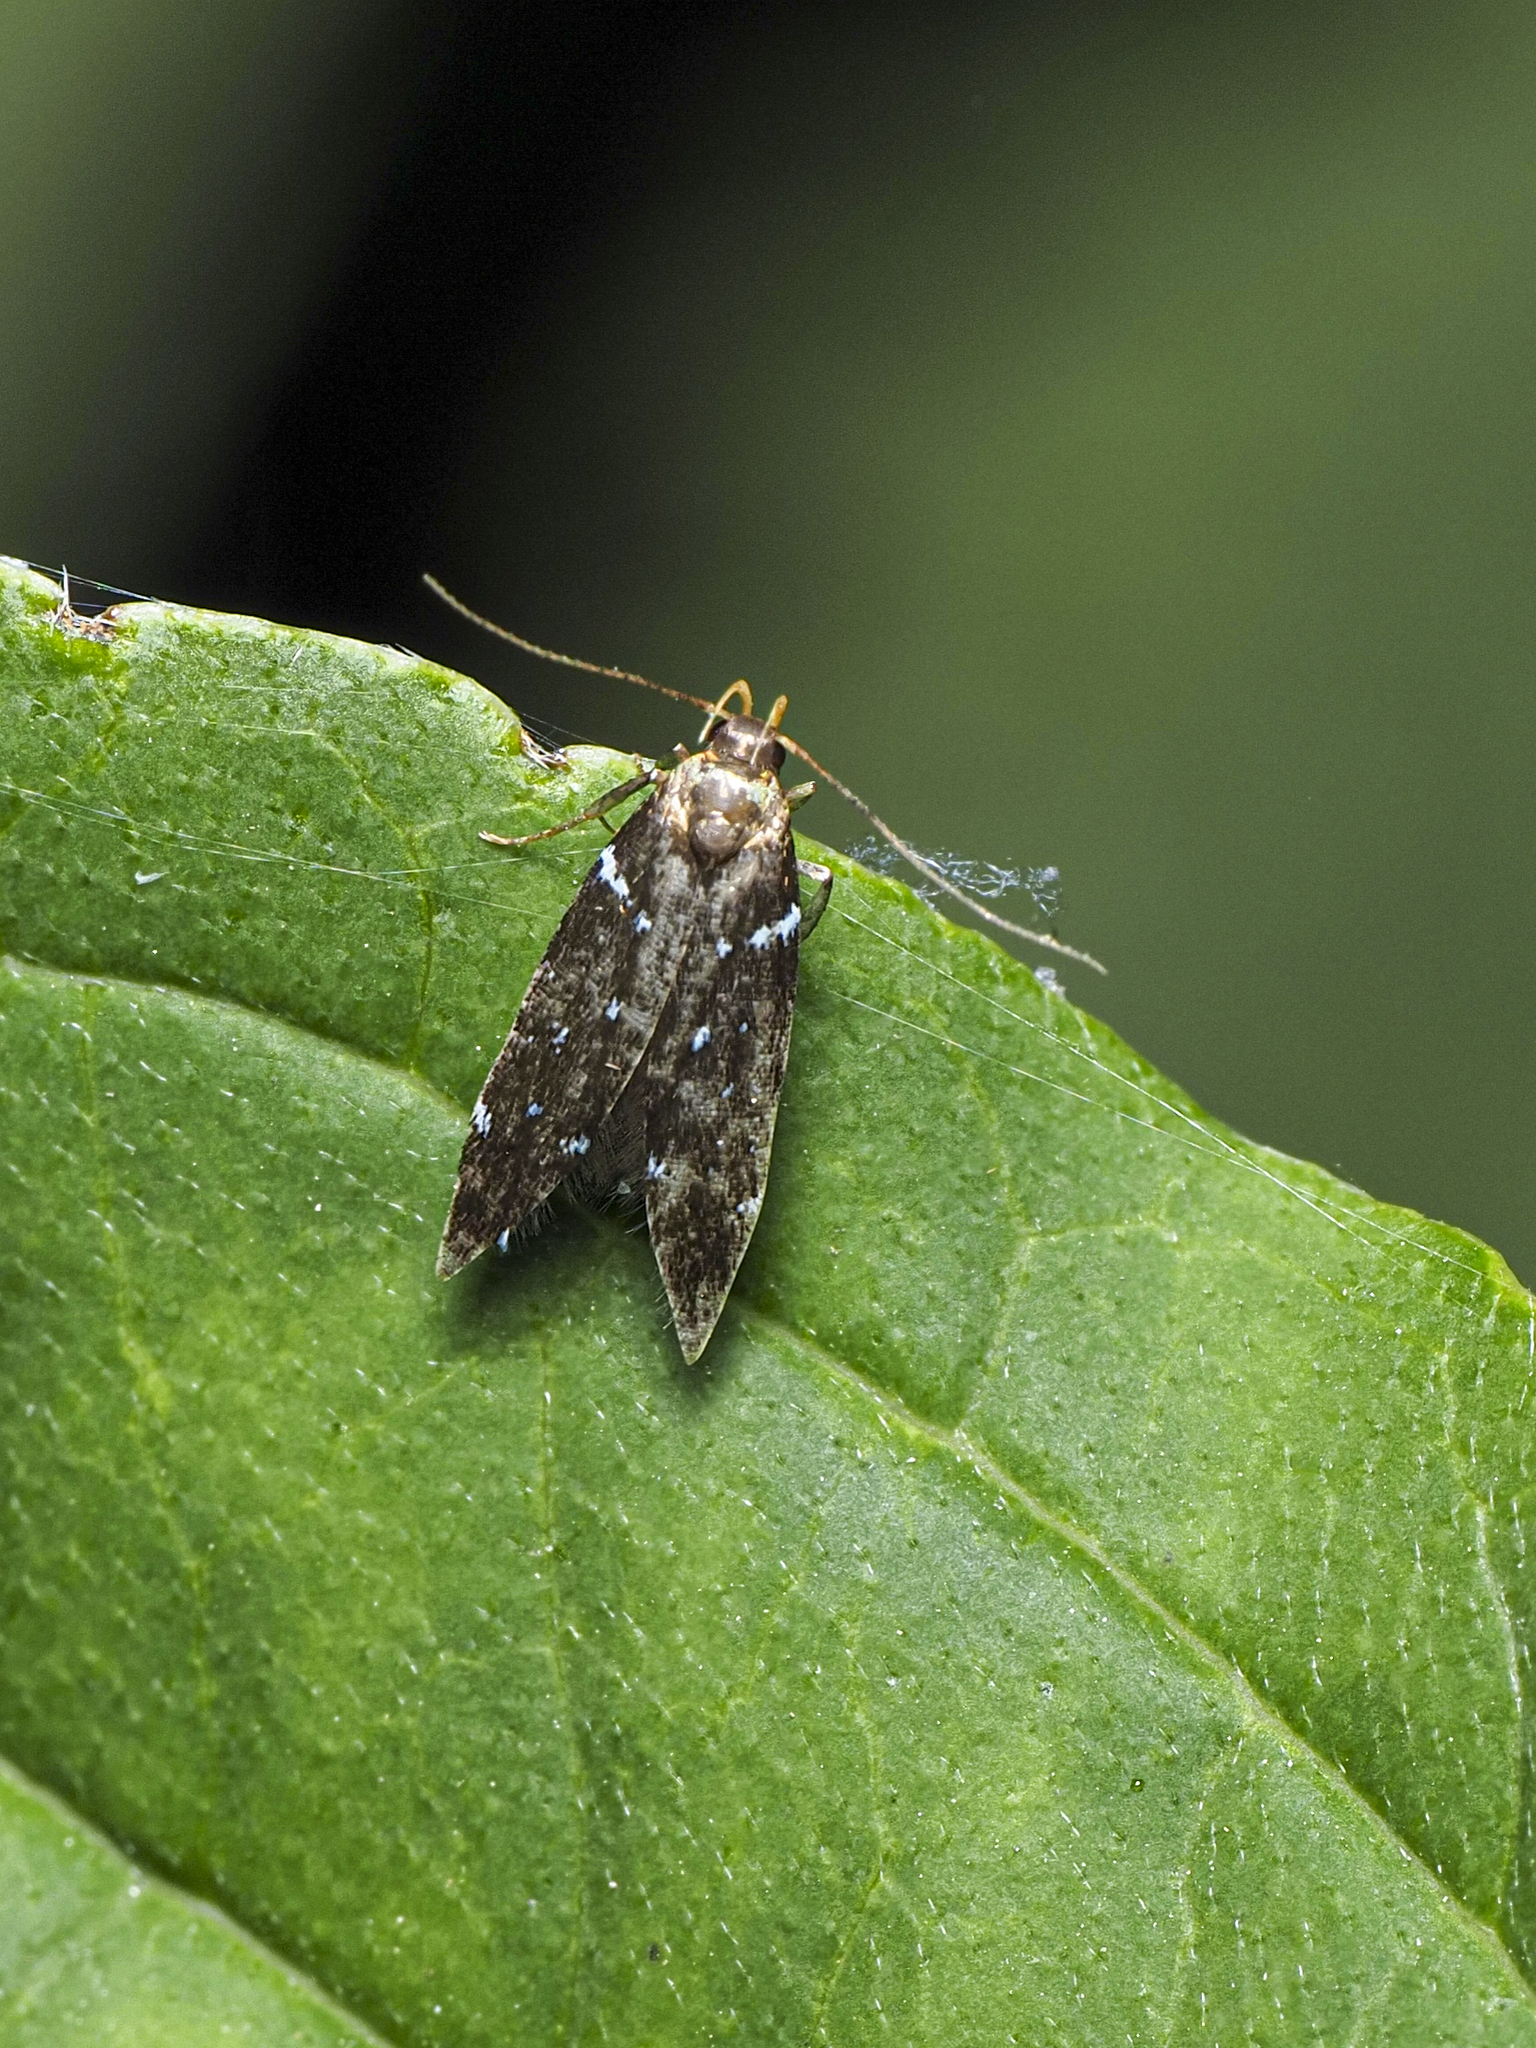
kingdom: Animalia
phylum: Arthropoda
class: Insecta
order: Lepidoptera
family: Gelechiidae
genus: Argolamprotes
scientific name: Argolamprotes micella
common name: Bright neb
